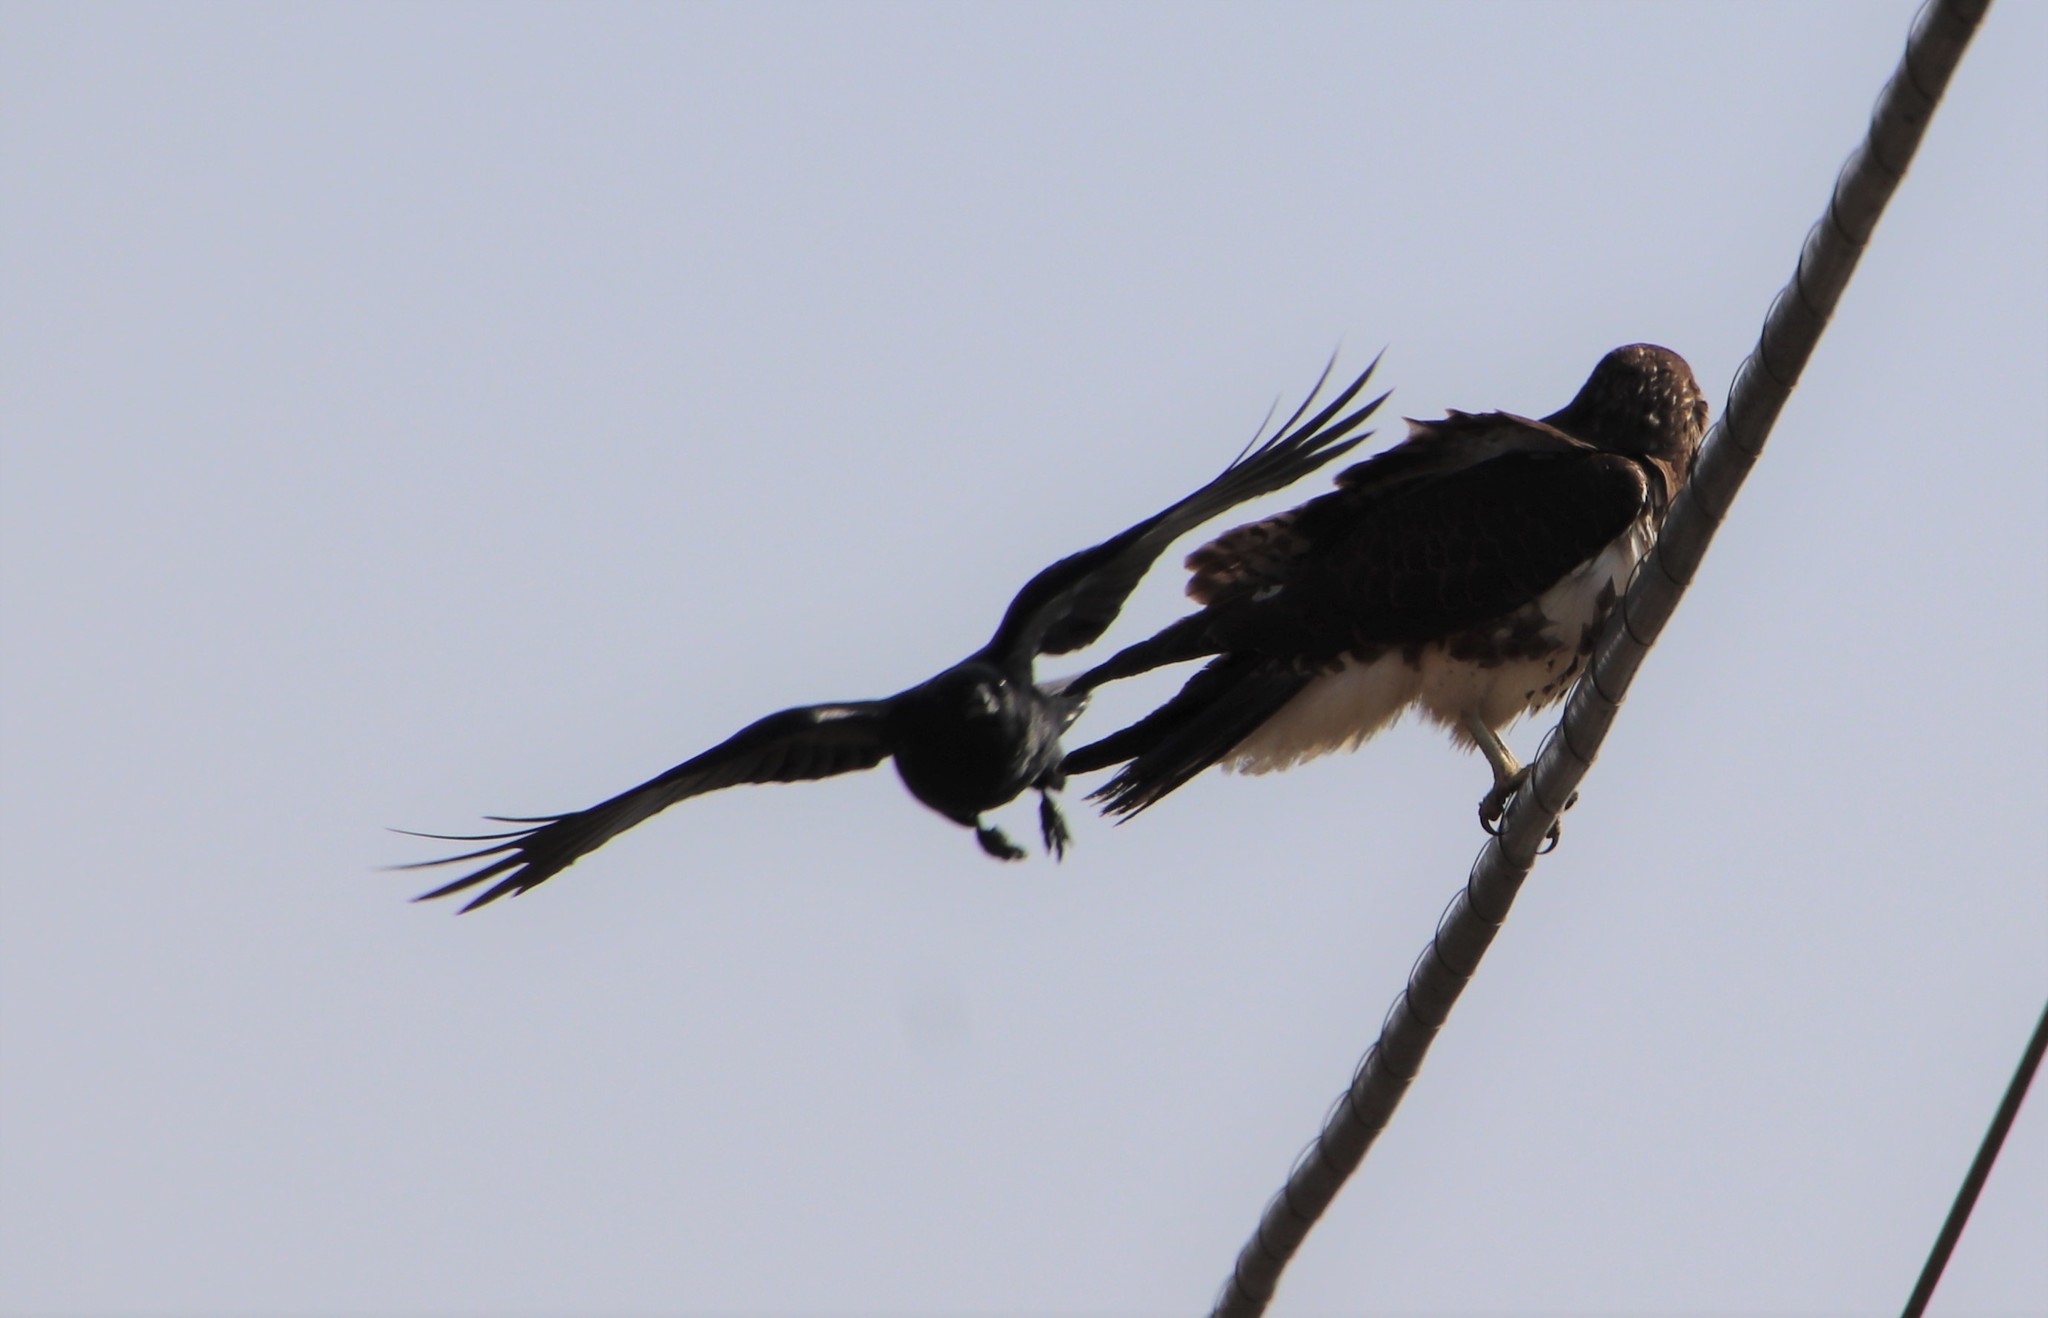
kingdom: Animalia
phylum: Chordata
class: Aves
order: Passeriformes
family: Corvidae
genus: Corvus
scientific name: Corvus brachyrhynchos
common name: American crow
